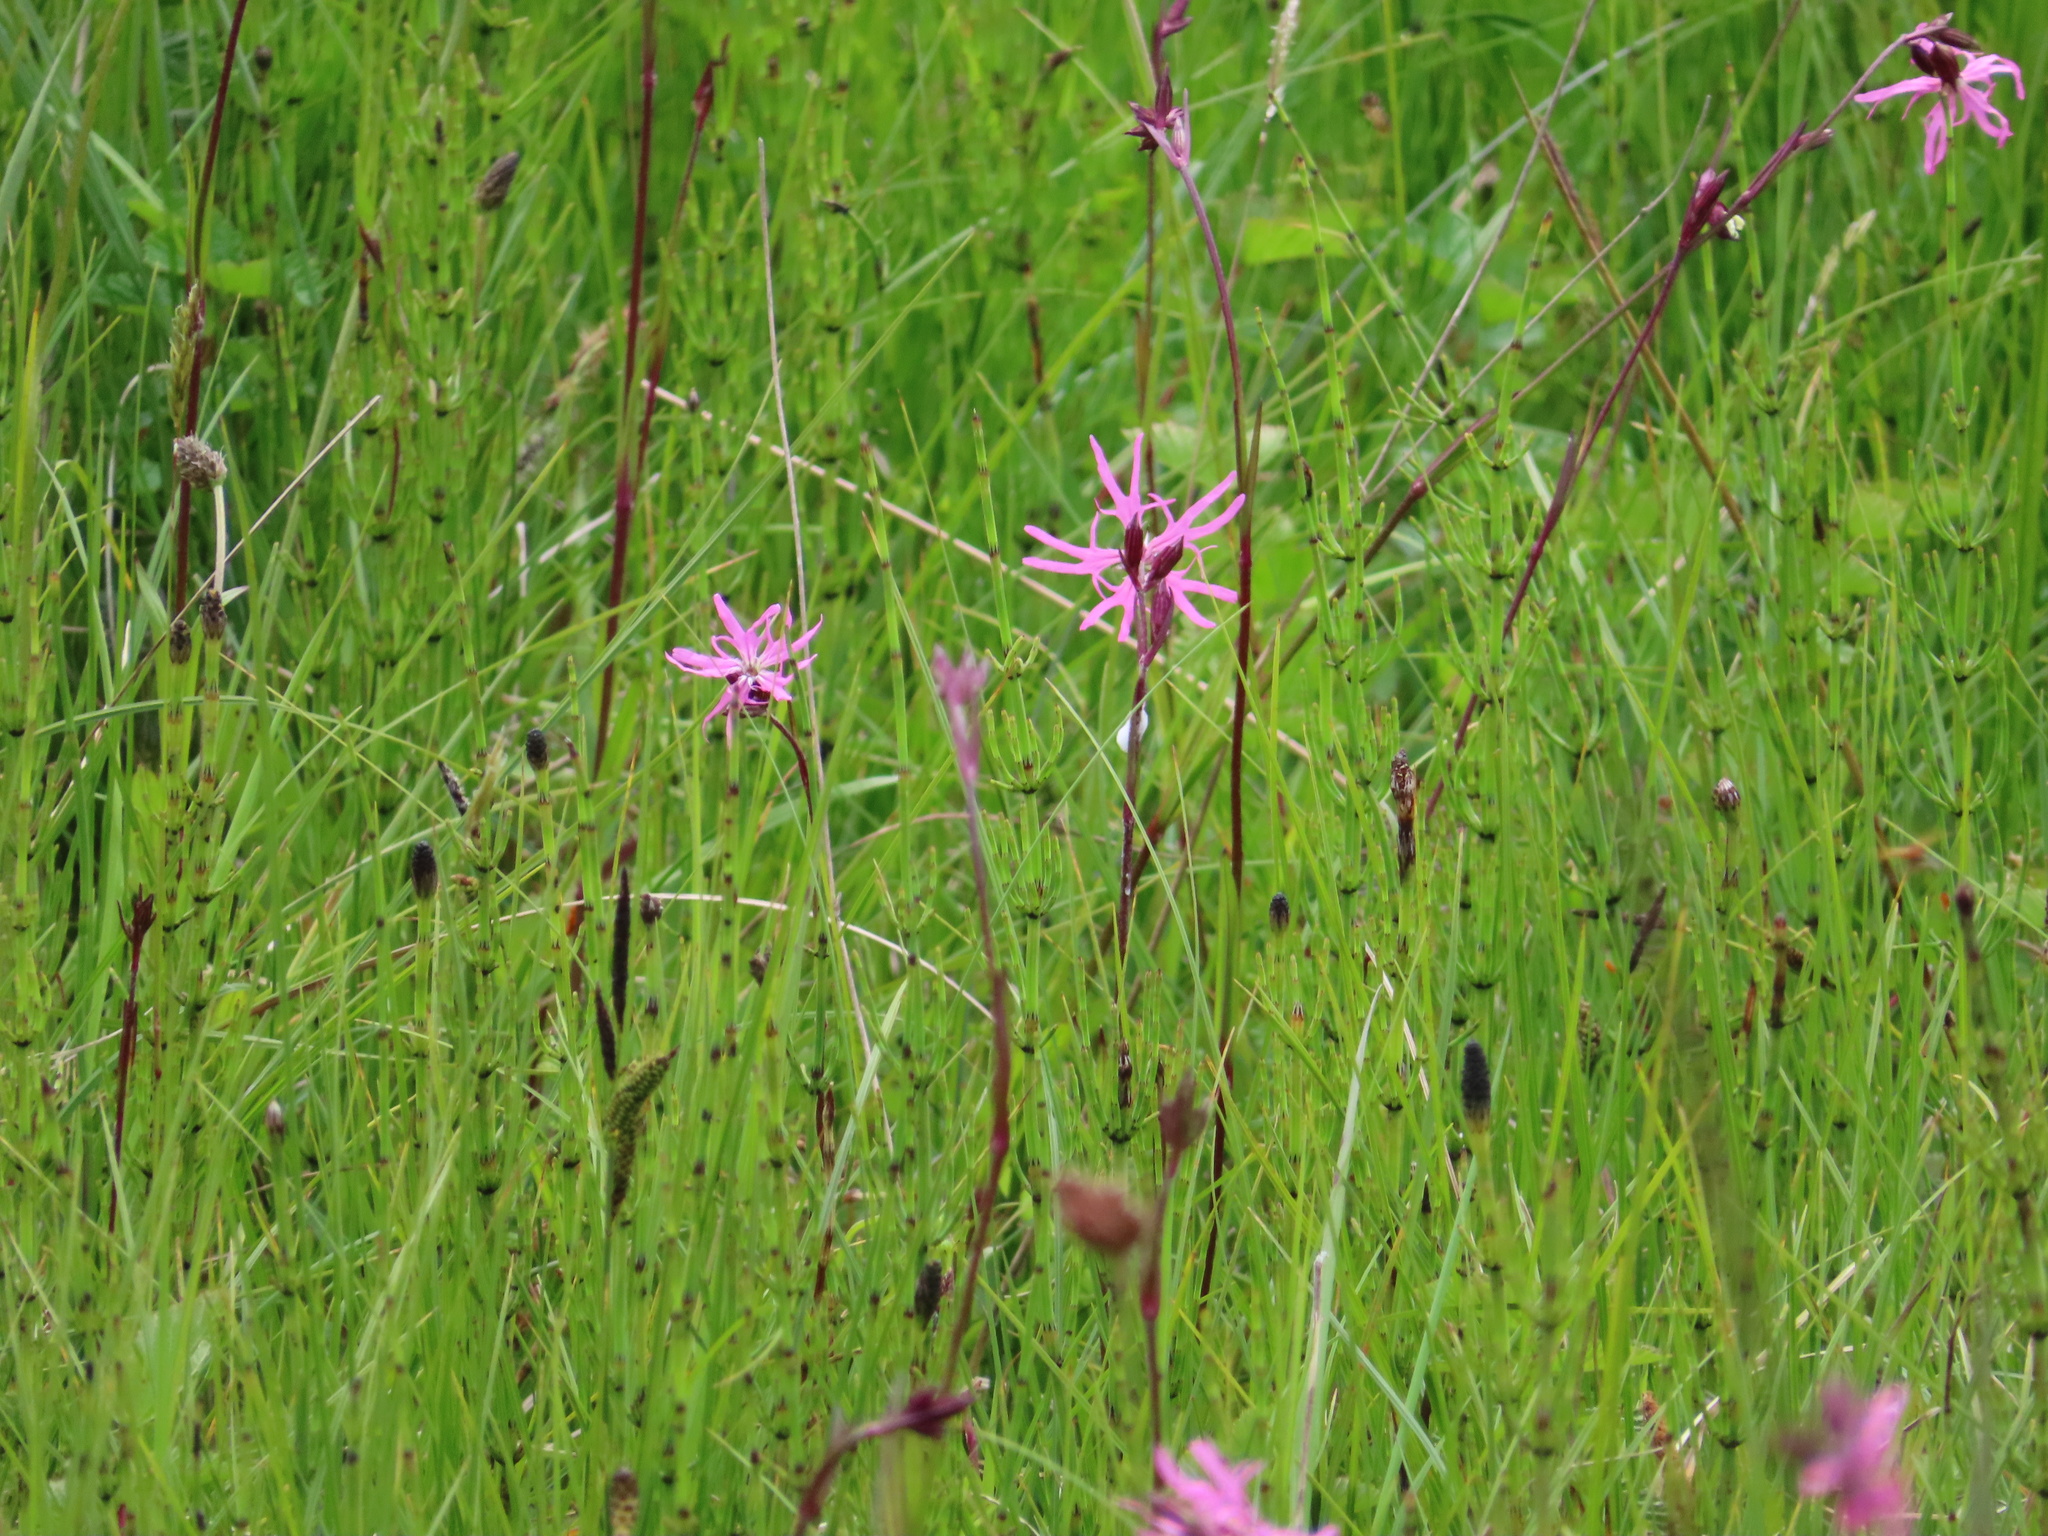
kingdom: Plantae
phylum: Tracheophyta
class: Magnoliopsida
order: Caryophyllales
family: Caryophyllaceae
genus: Silene
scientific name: Silene flos-cuculi
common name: Ragged-robin
